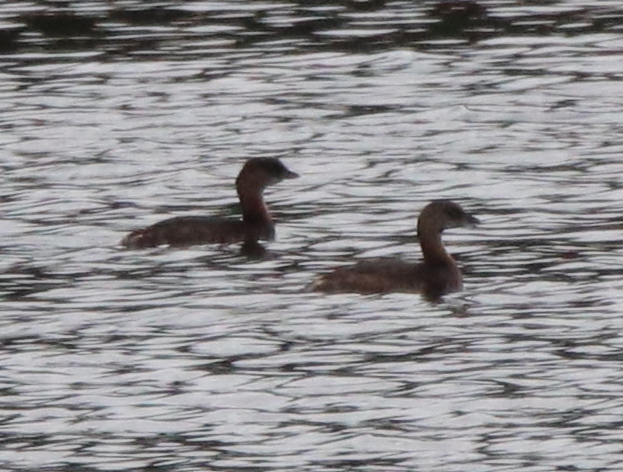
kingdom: Animalia
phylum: Chordata
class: Aves
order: Podicipediformes
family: Podicipedidae
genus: Podilymbus
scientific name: Podilymbus podiceps
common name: Pied-billed grebe
